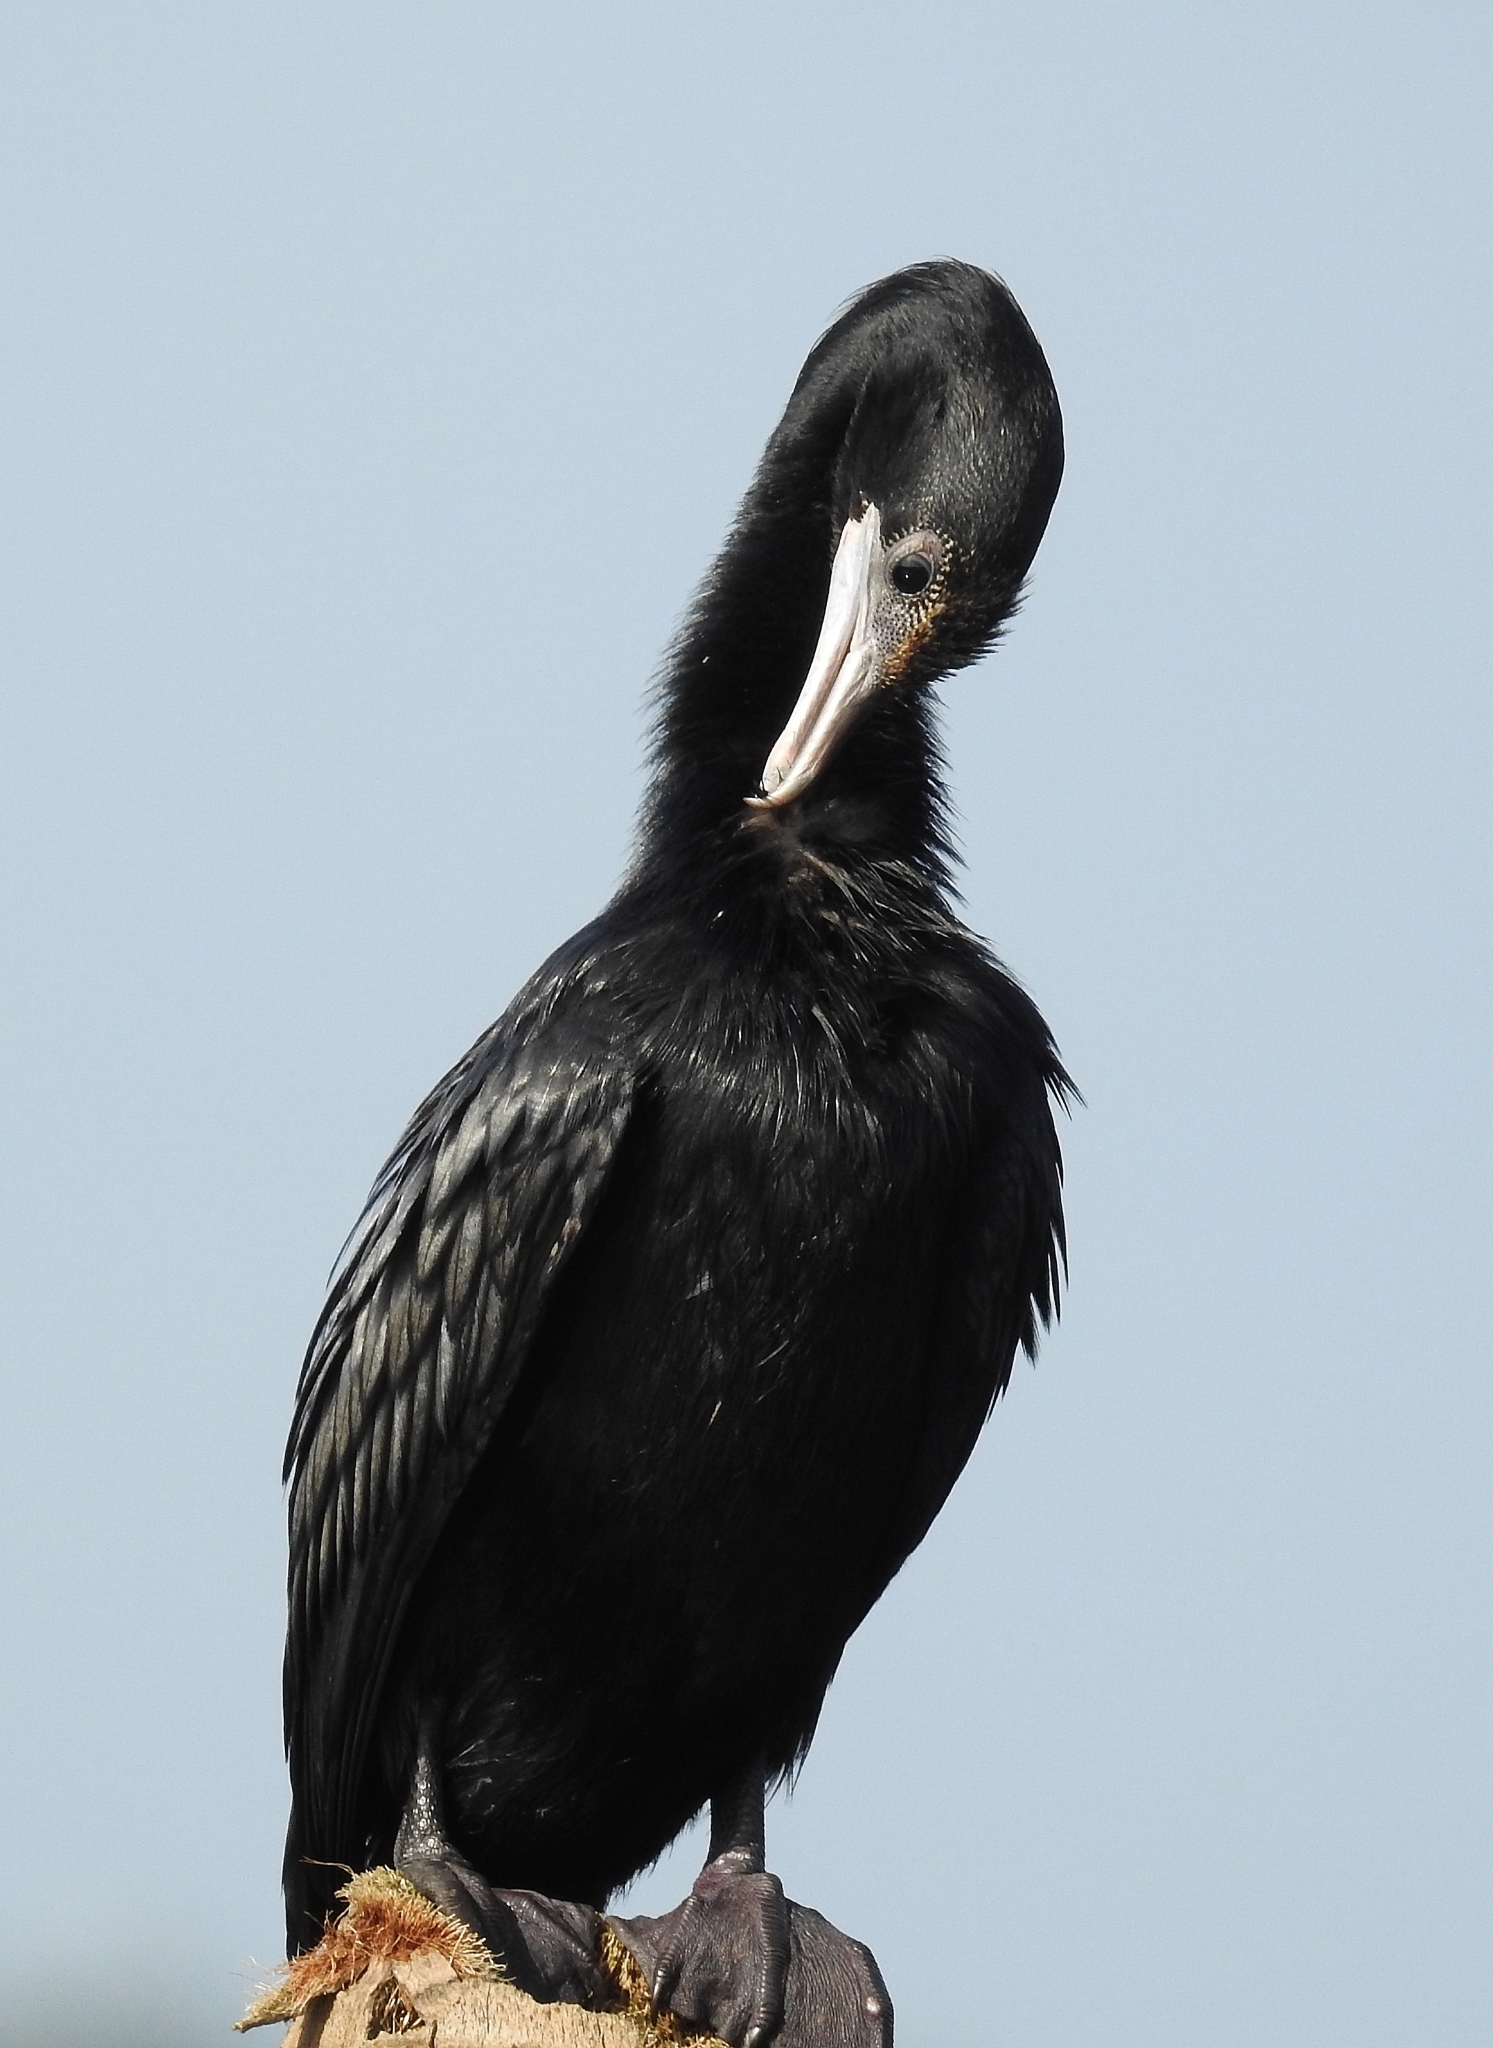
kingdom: Animalia
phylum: Chordata
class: Aves
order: Suliformes
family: Phalacrocoracidae
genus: Microcarbo
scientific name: Microcarbo niger
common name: Little cormorant
